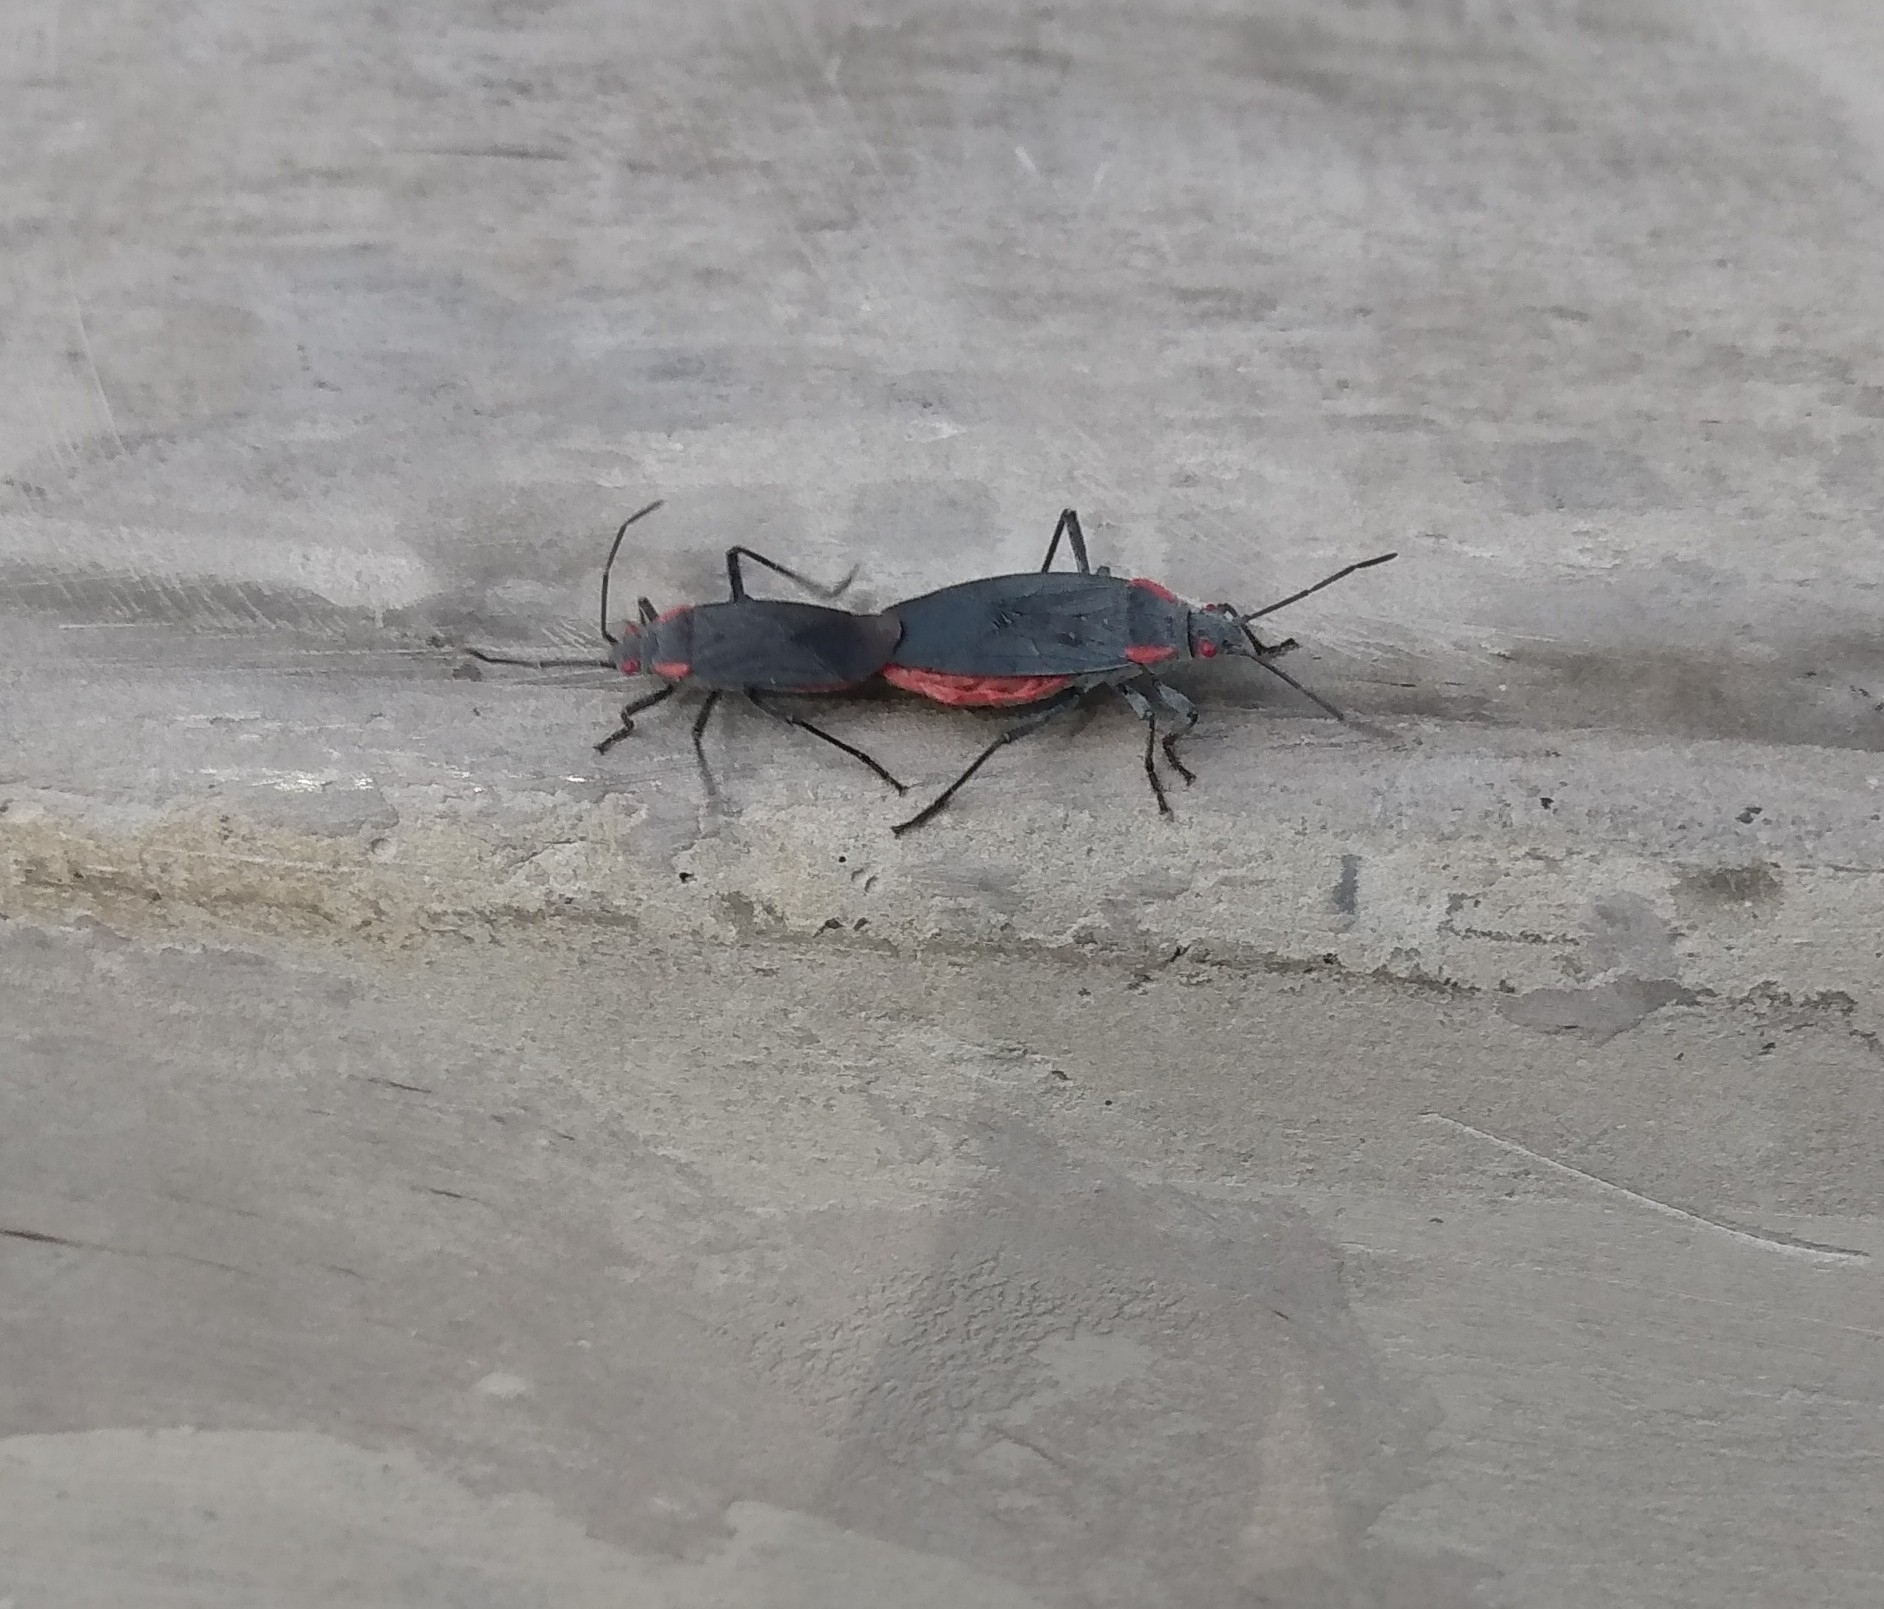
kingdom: Animalia
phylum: Arthropoda
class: Insecta
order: Hemiptera
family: Rhopalidae
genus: Jadera
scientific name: Jadera haematoloma
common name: Red-shouldered bug
